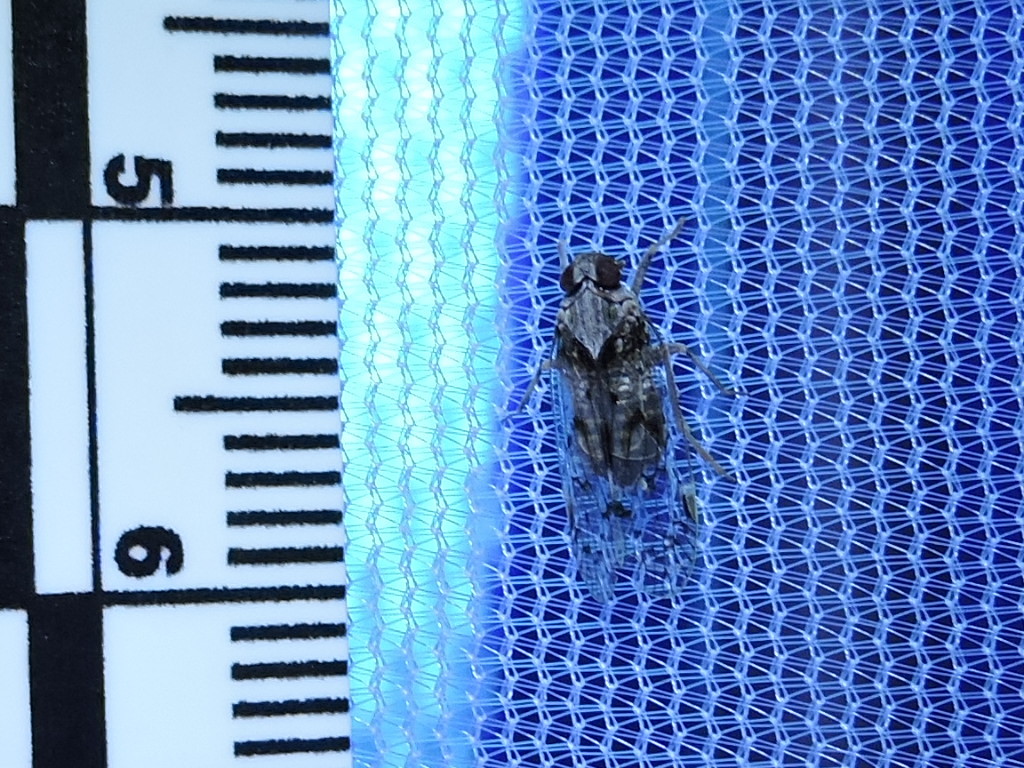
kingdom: Animalia
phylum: Arthropoda
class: Insecta
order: Hemiptera
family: Cixiidae
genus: Melanoliarus
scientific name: Melanoliarus aridus
